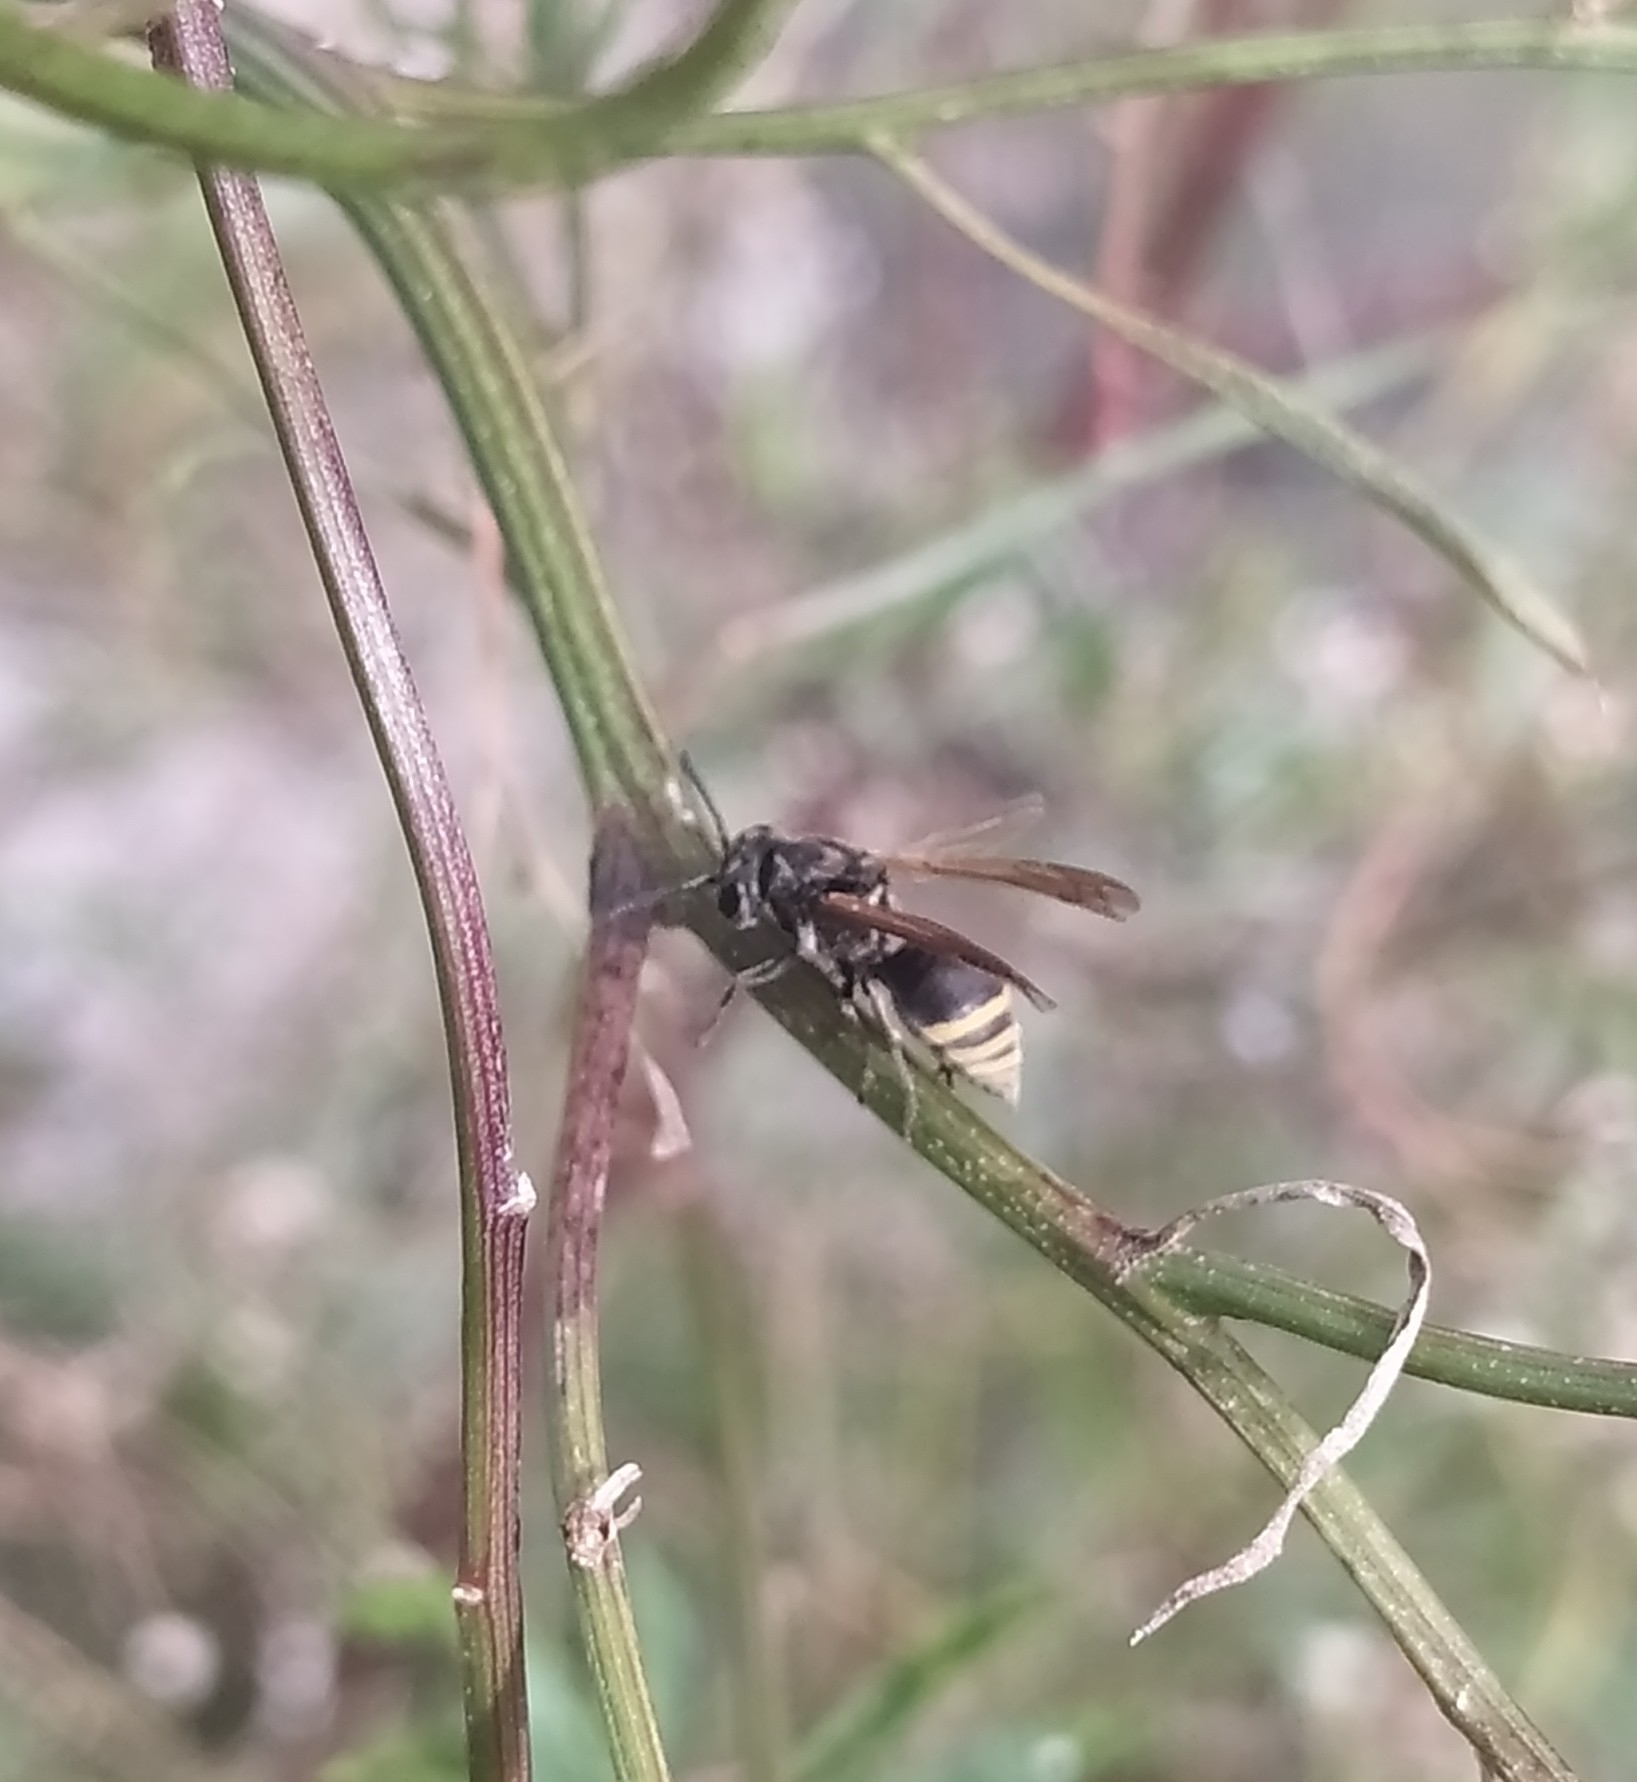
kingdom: Animalia
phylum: Arthropoda
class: Insecta
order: Hymenoptera
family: Vespidae
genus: Brachygastra
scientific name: Brachygastra lecheguana
